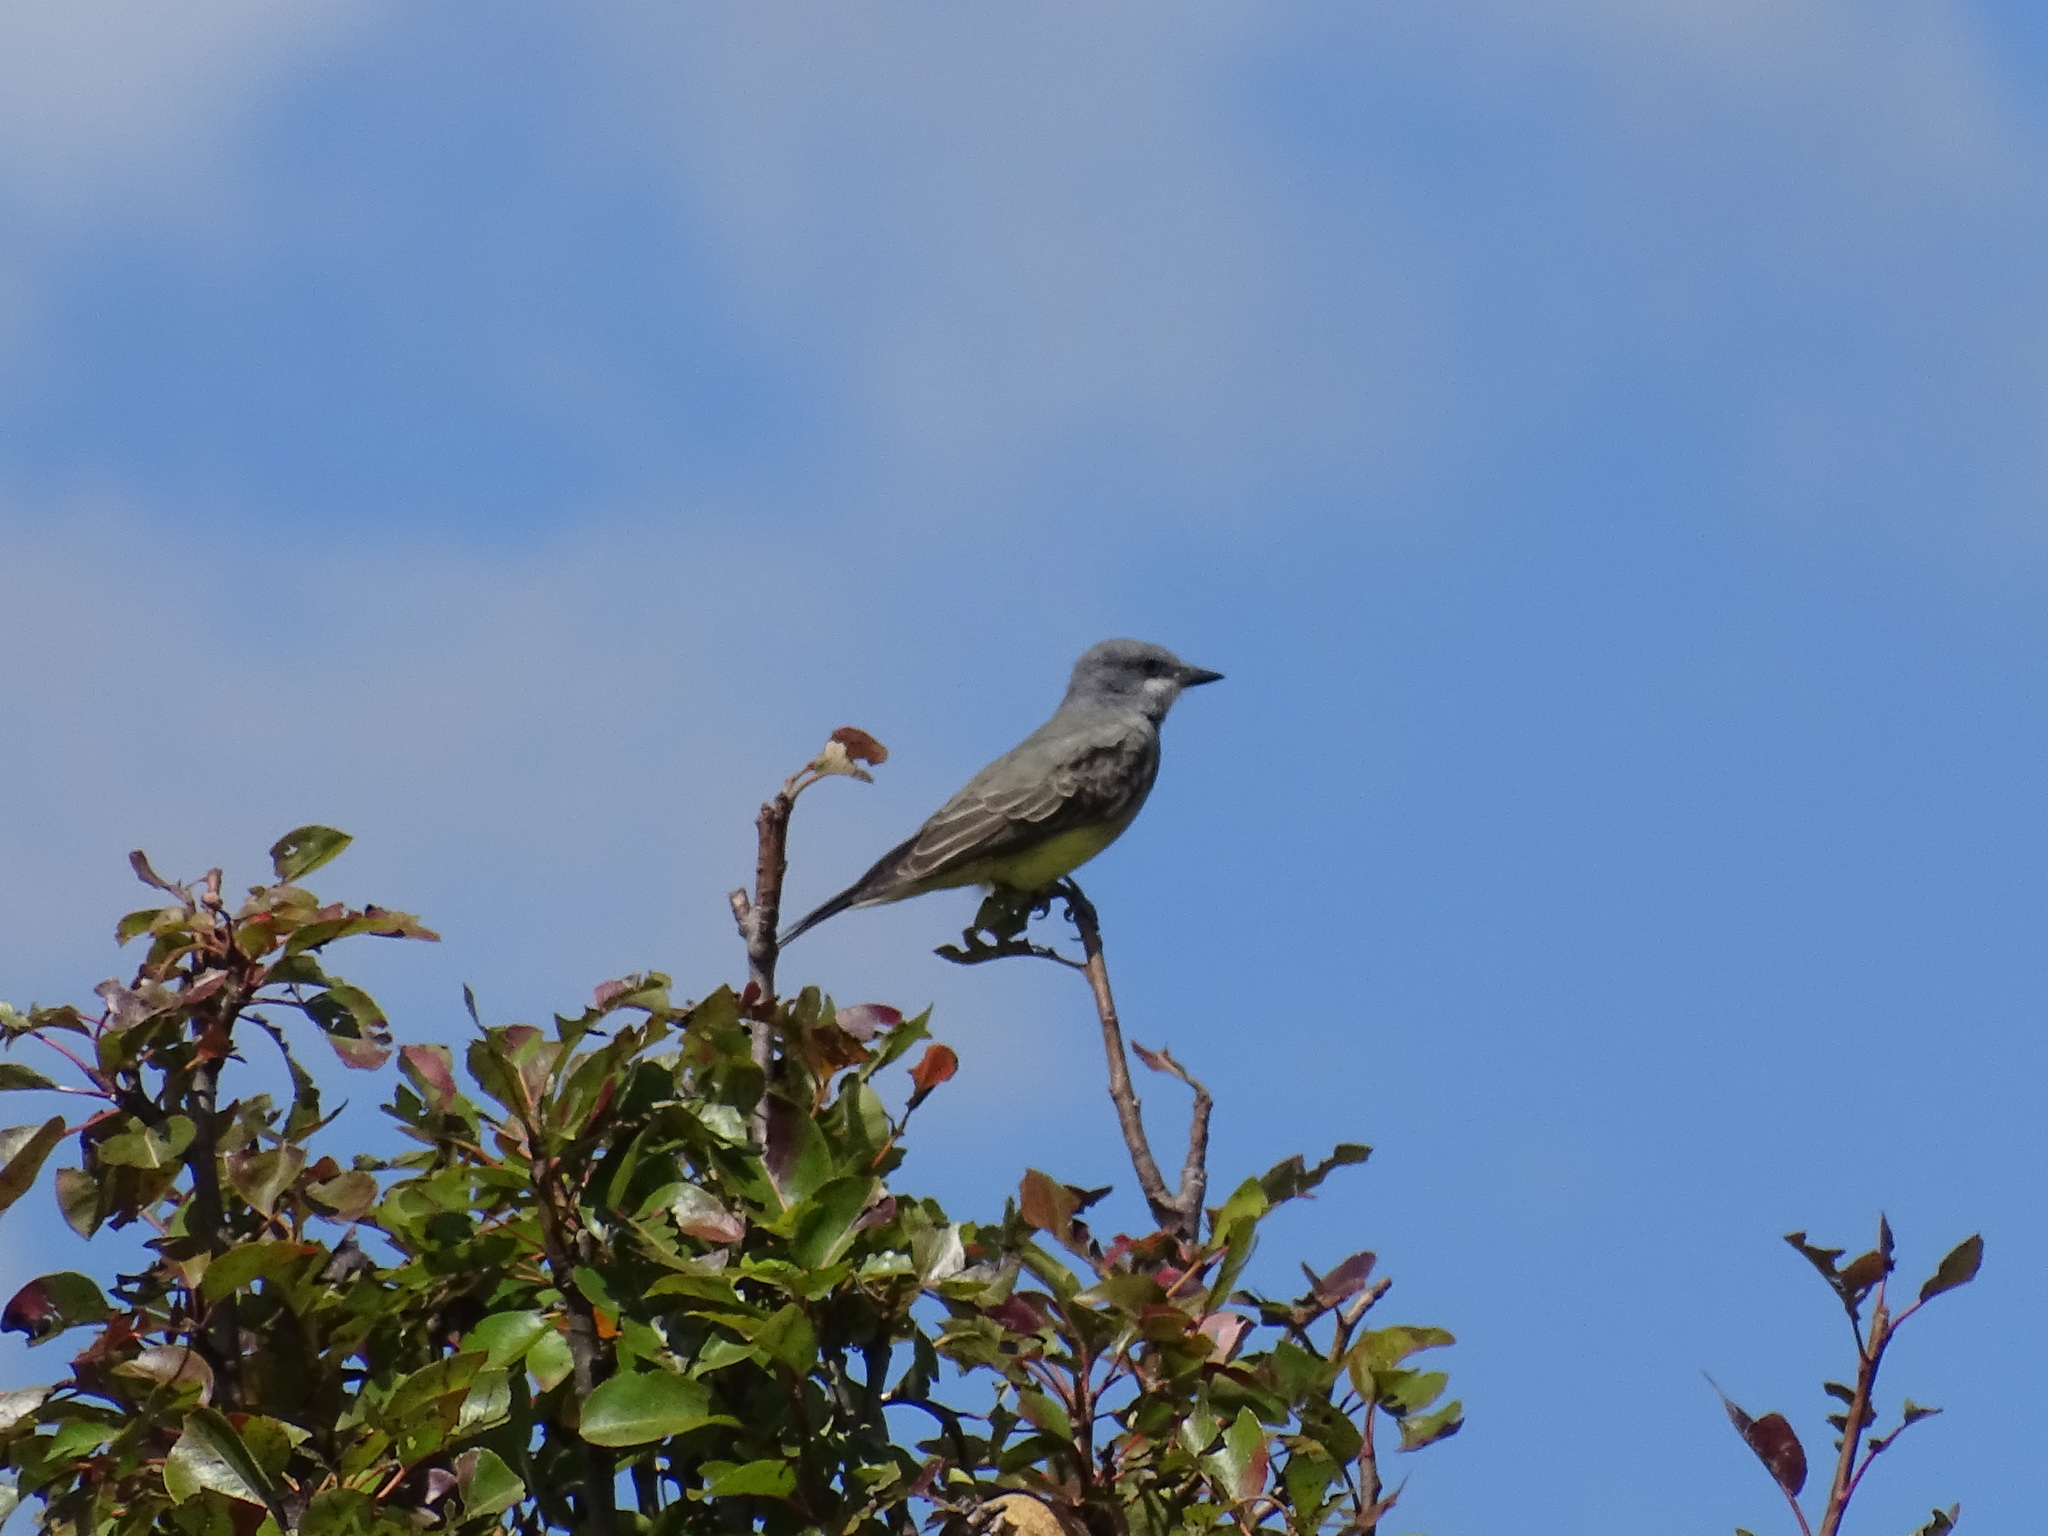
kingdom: Animalia
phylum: Chordata
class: Aves
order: Passeriformes
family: Tyrannidae
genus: Tyrannus
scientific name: Tyrannus vociferans
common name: Cassin's kingbird
